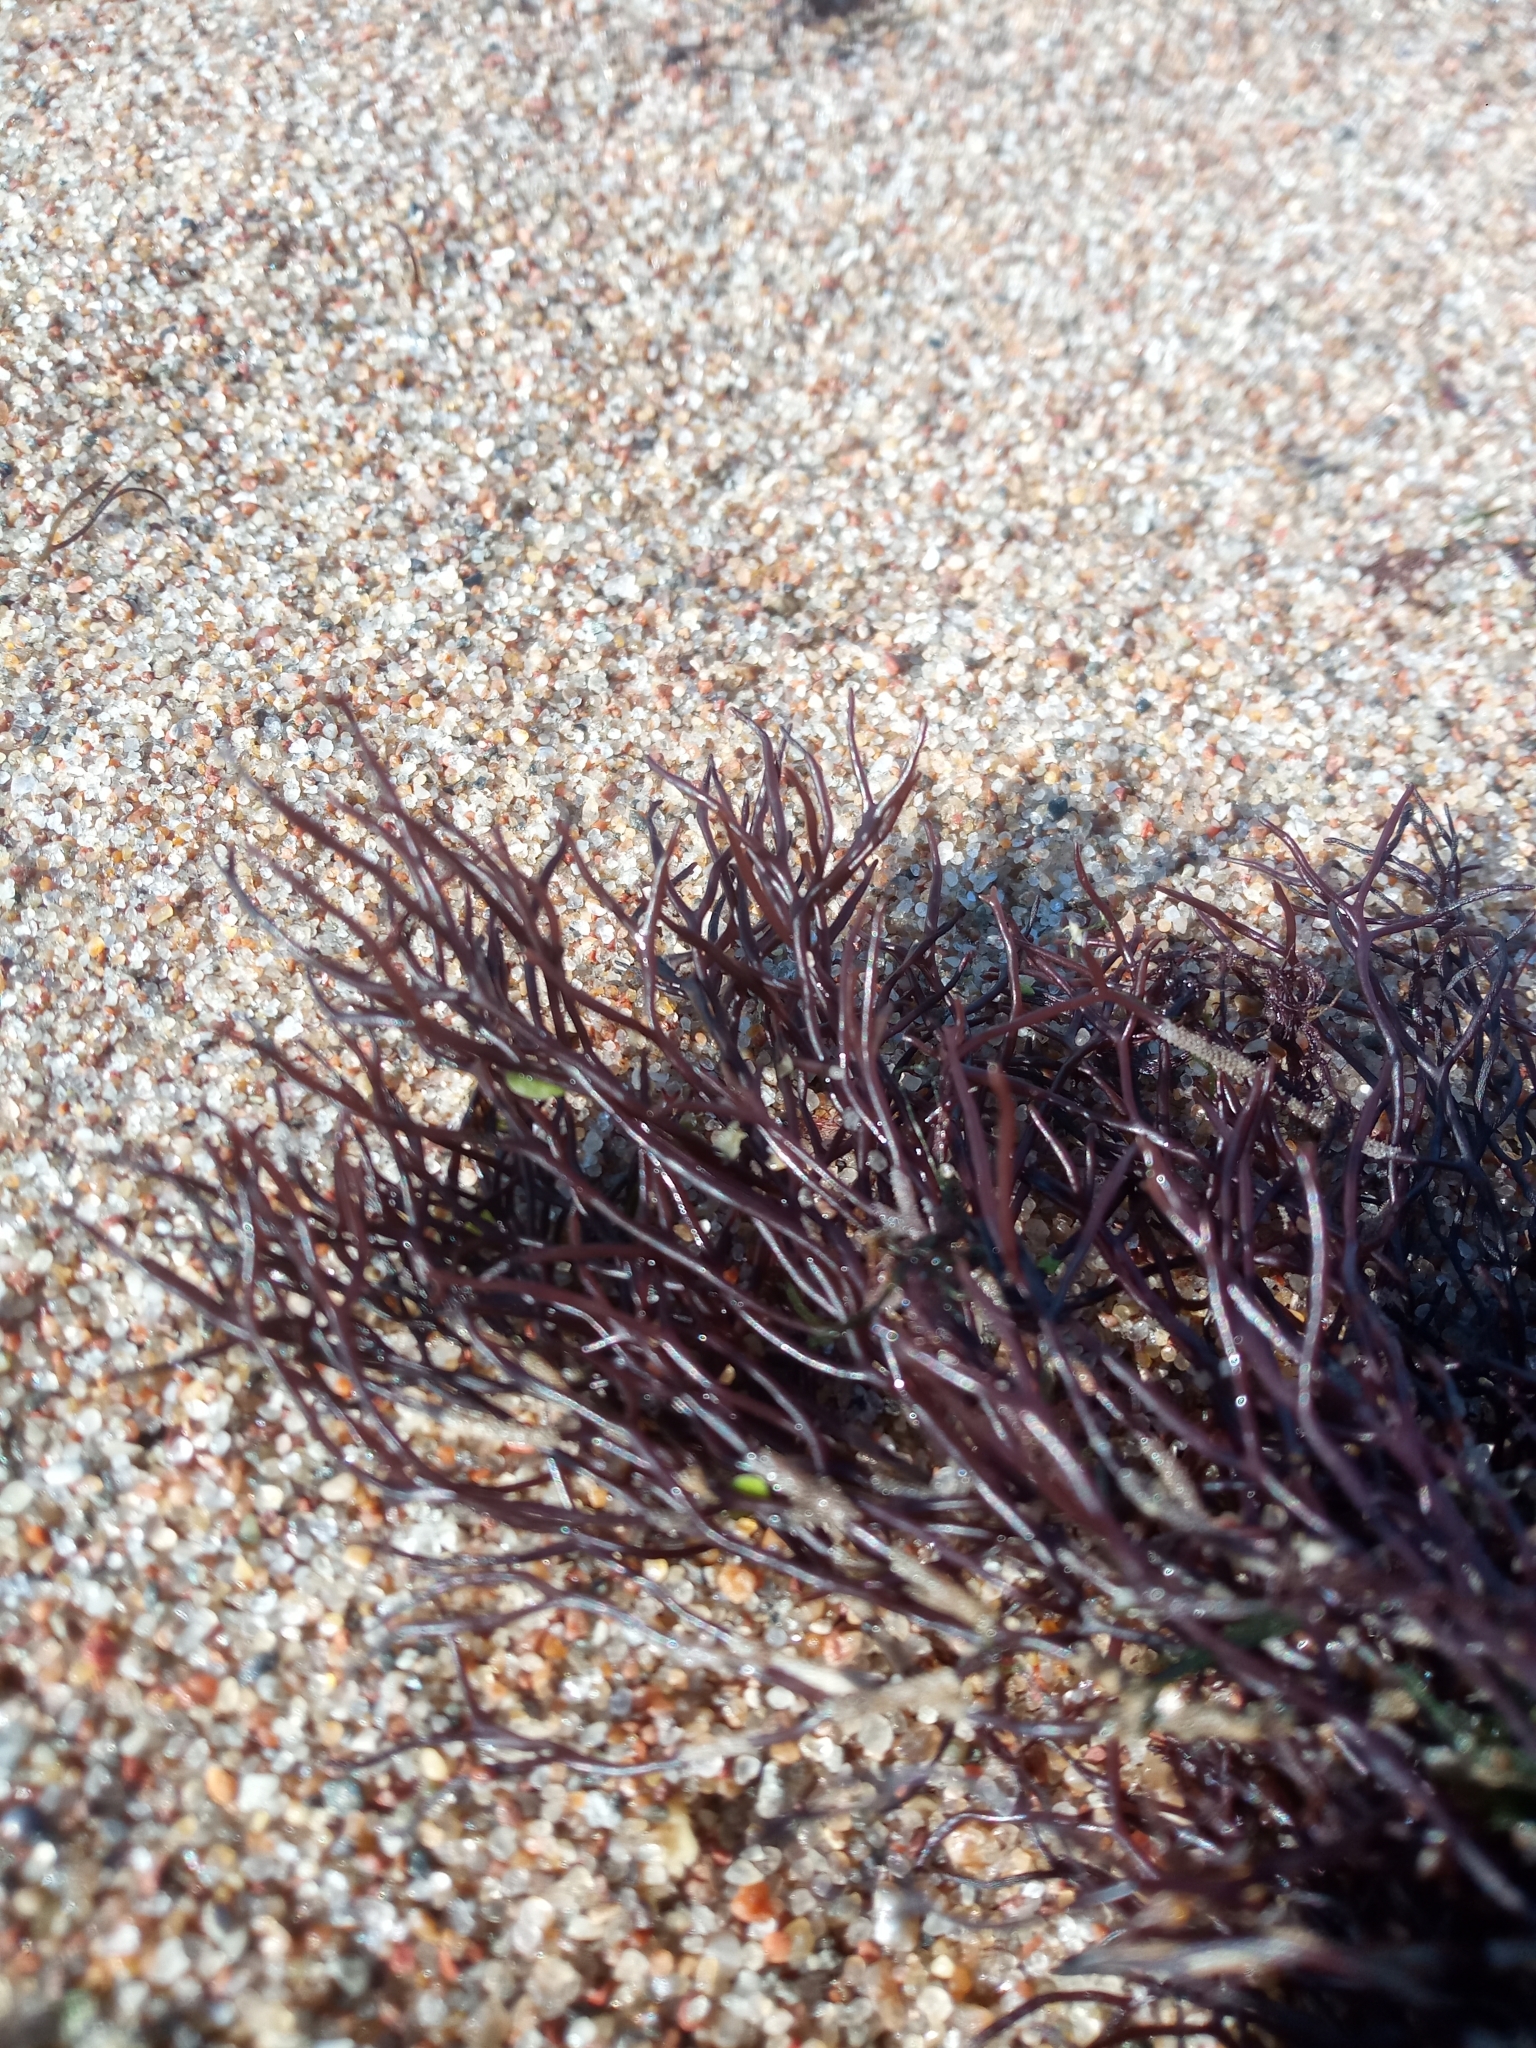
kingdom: Plantae
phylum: Rhodophyta
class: Florideophyceae
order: Gigartinales
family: Furcellariaceae
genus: Furcellaria
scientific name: Furcellaria lumbricalis
